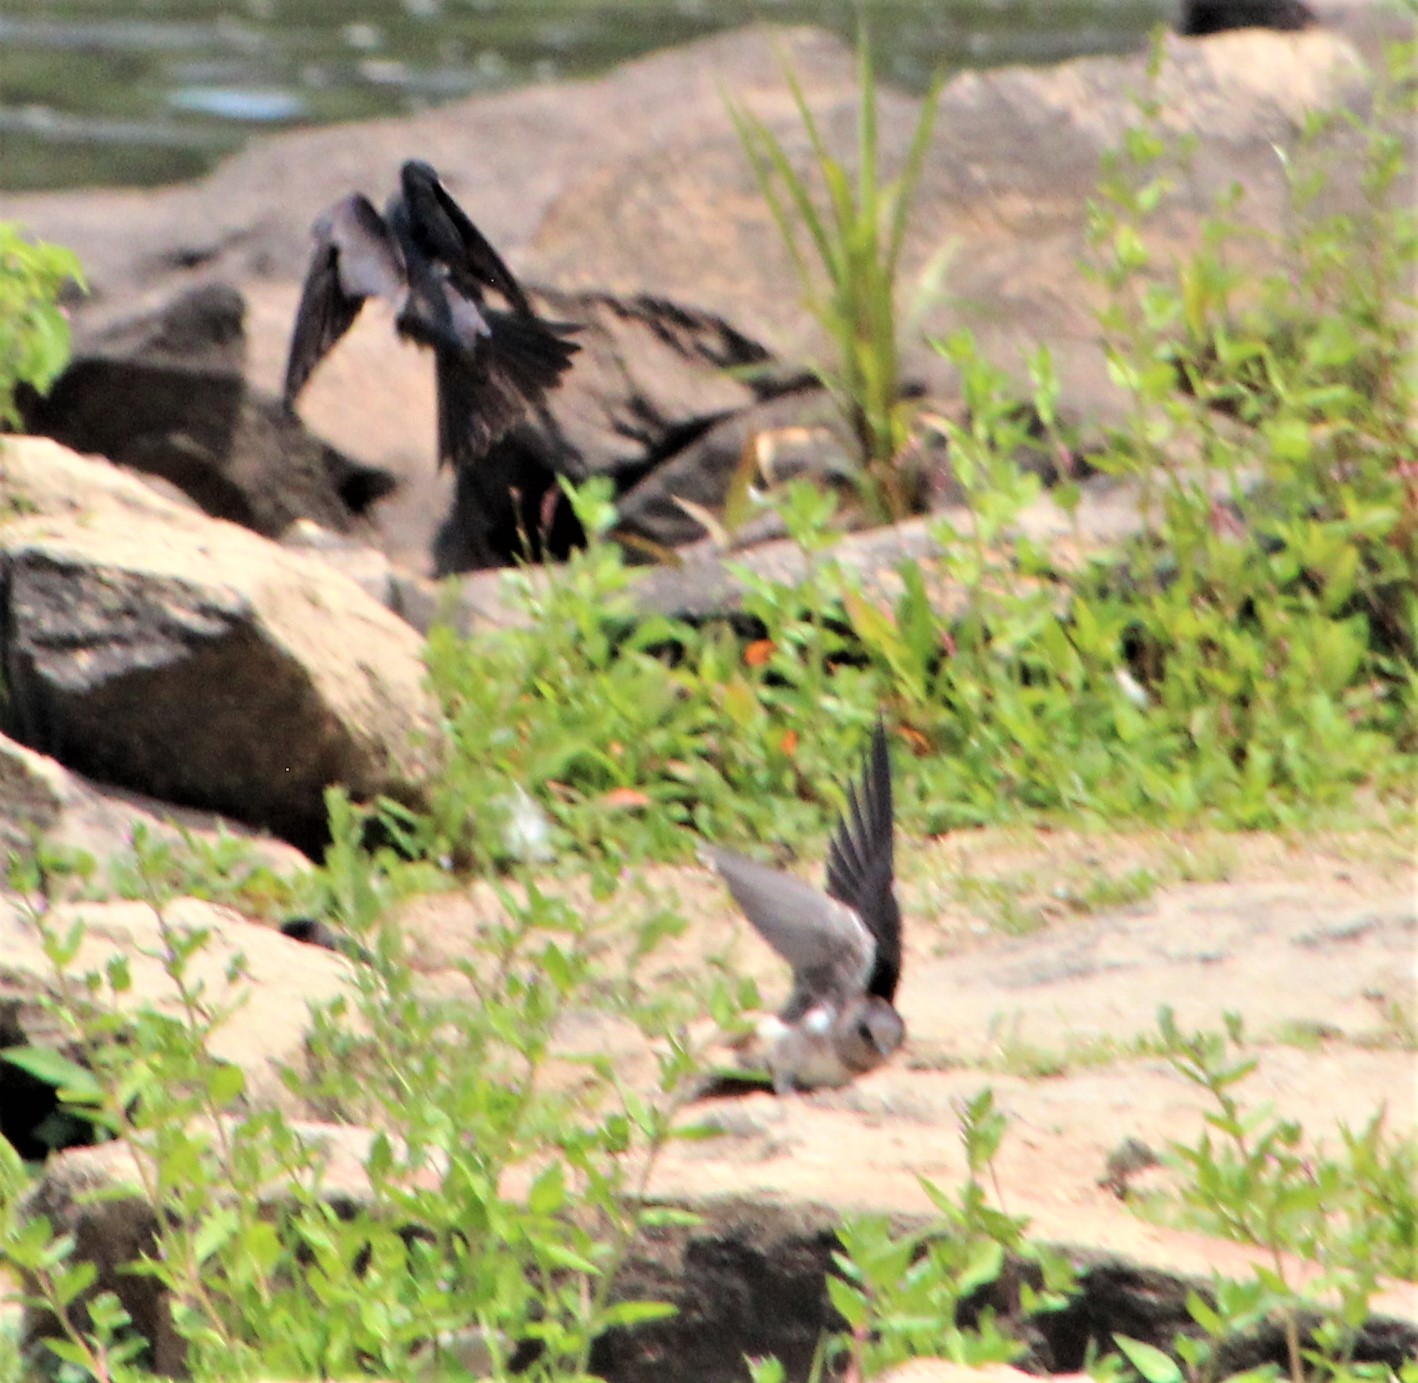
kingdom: Animalia
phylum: Chordata
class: Aves
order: Passeriformes
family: Hirundinidae
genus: Stelgidopteryx
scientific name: Stelgidopteryx serripennis
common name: Northern rough-winged swallow
